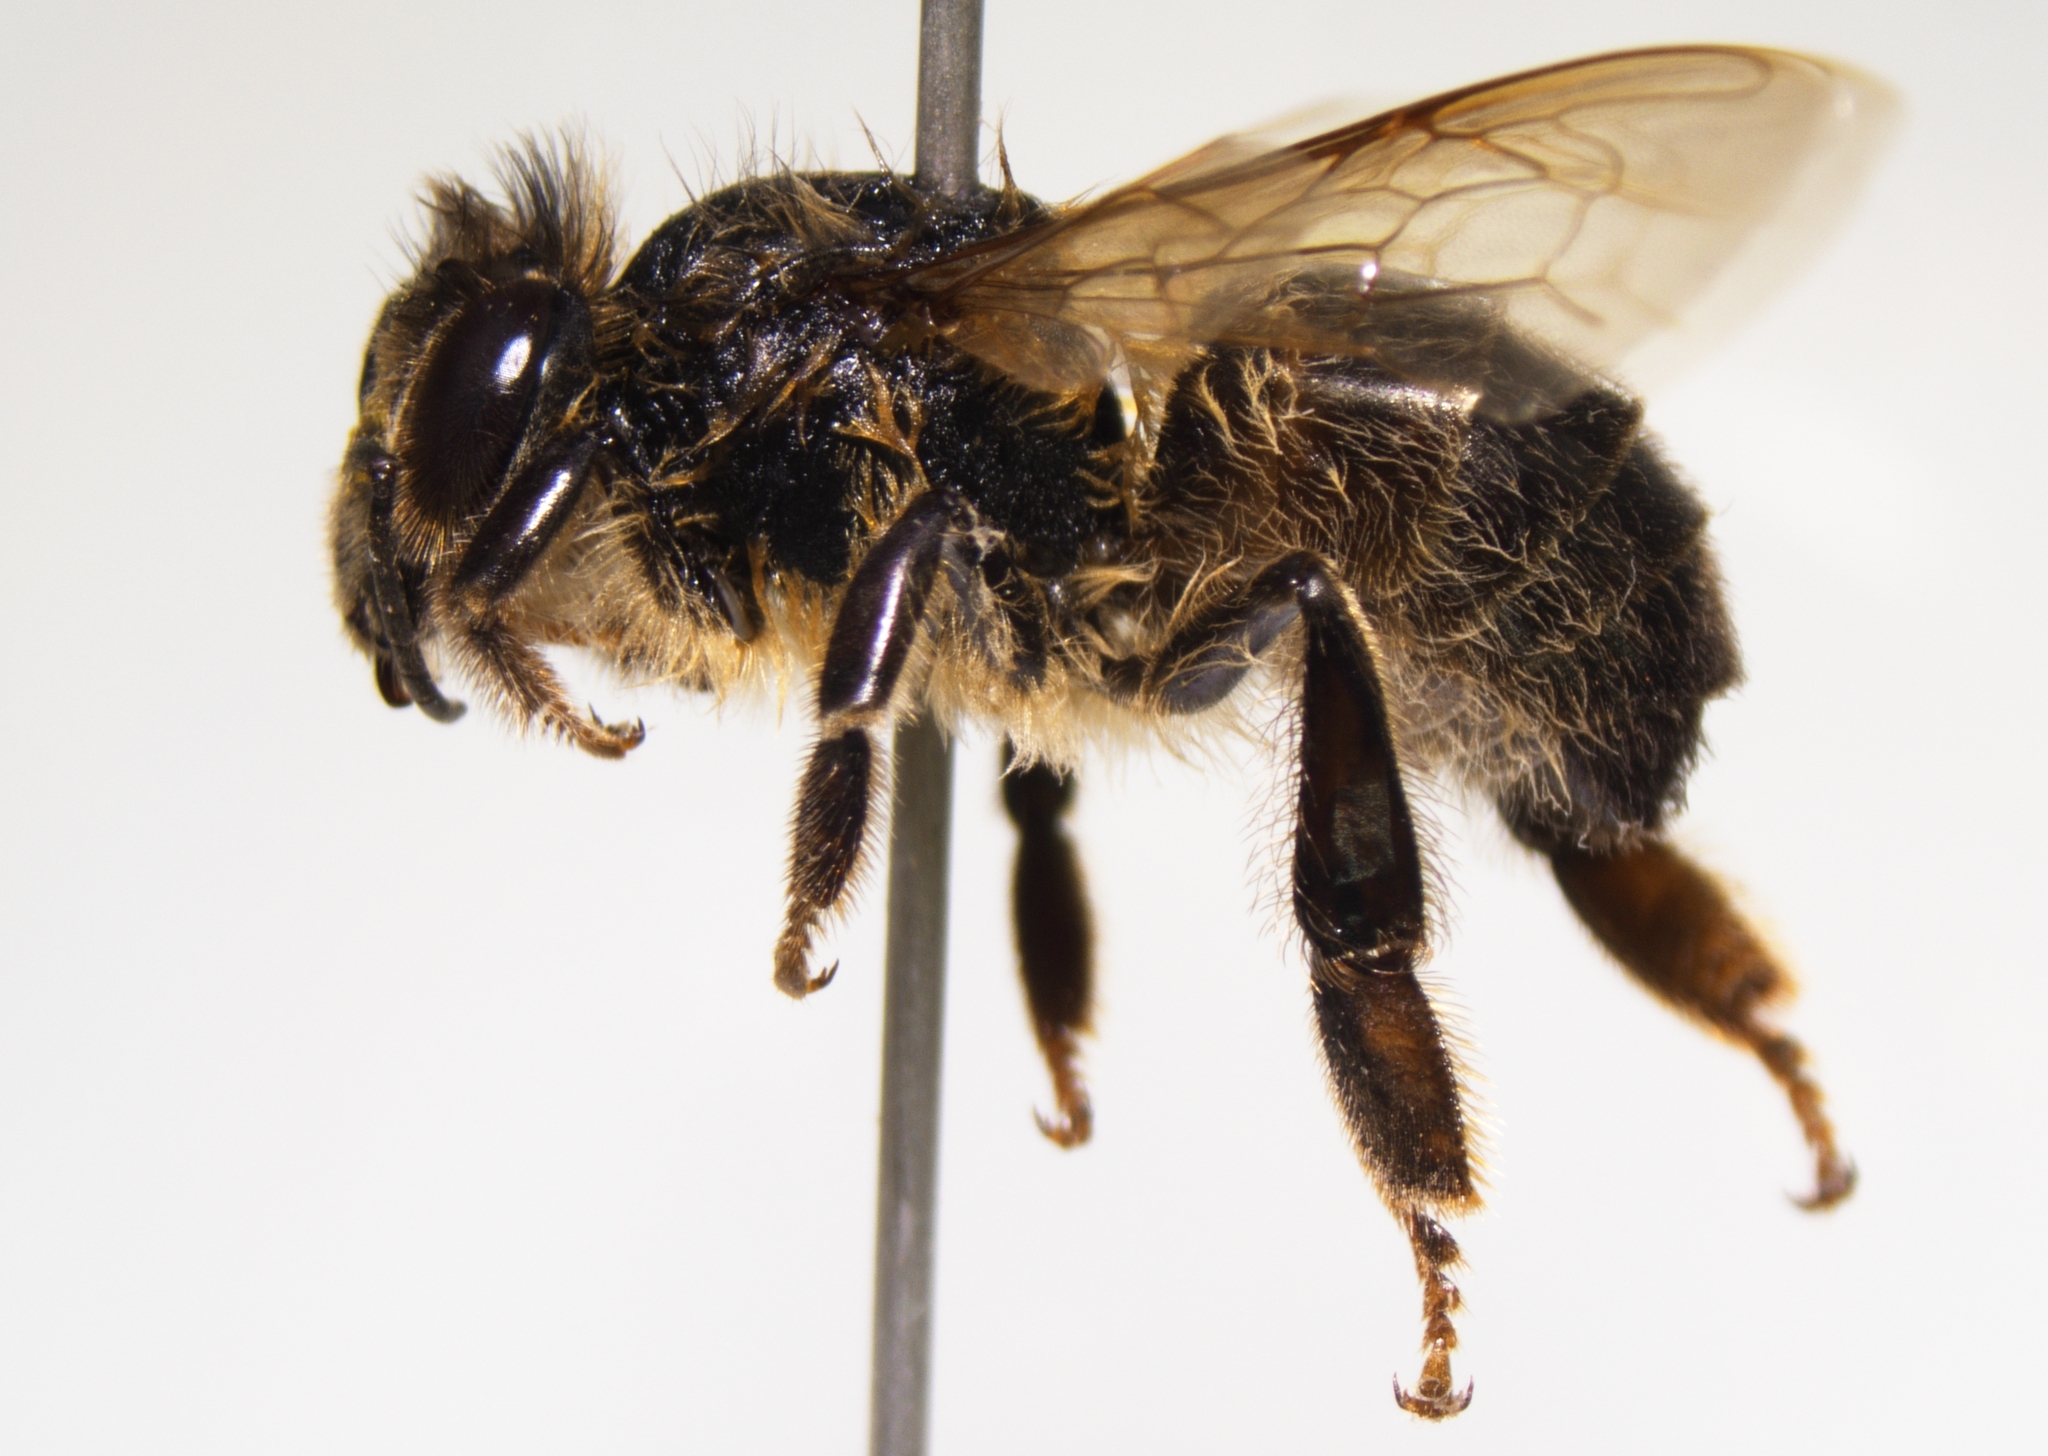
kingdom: Animalia
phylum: Arthropoda
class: Insecta
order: Hymenoptera
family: Apidae
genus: Apis
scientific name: Apis mellifera
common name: Honey bee
